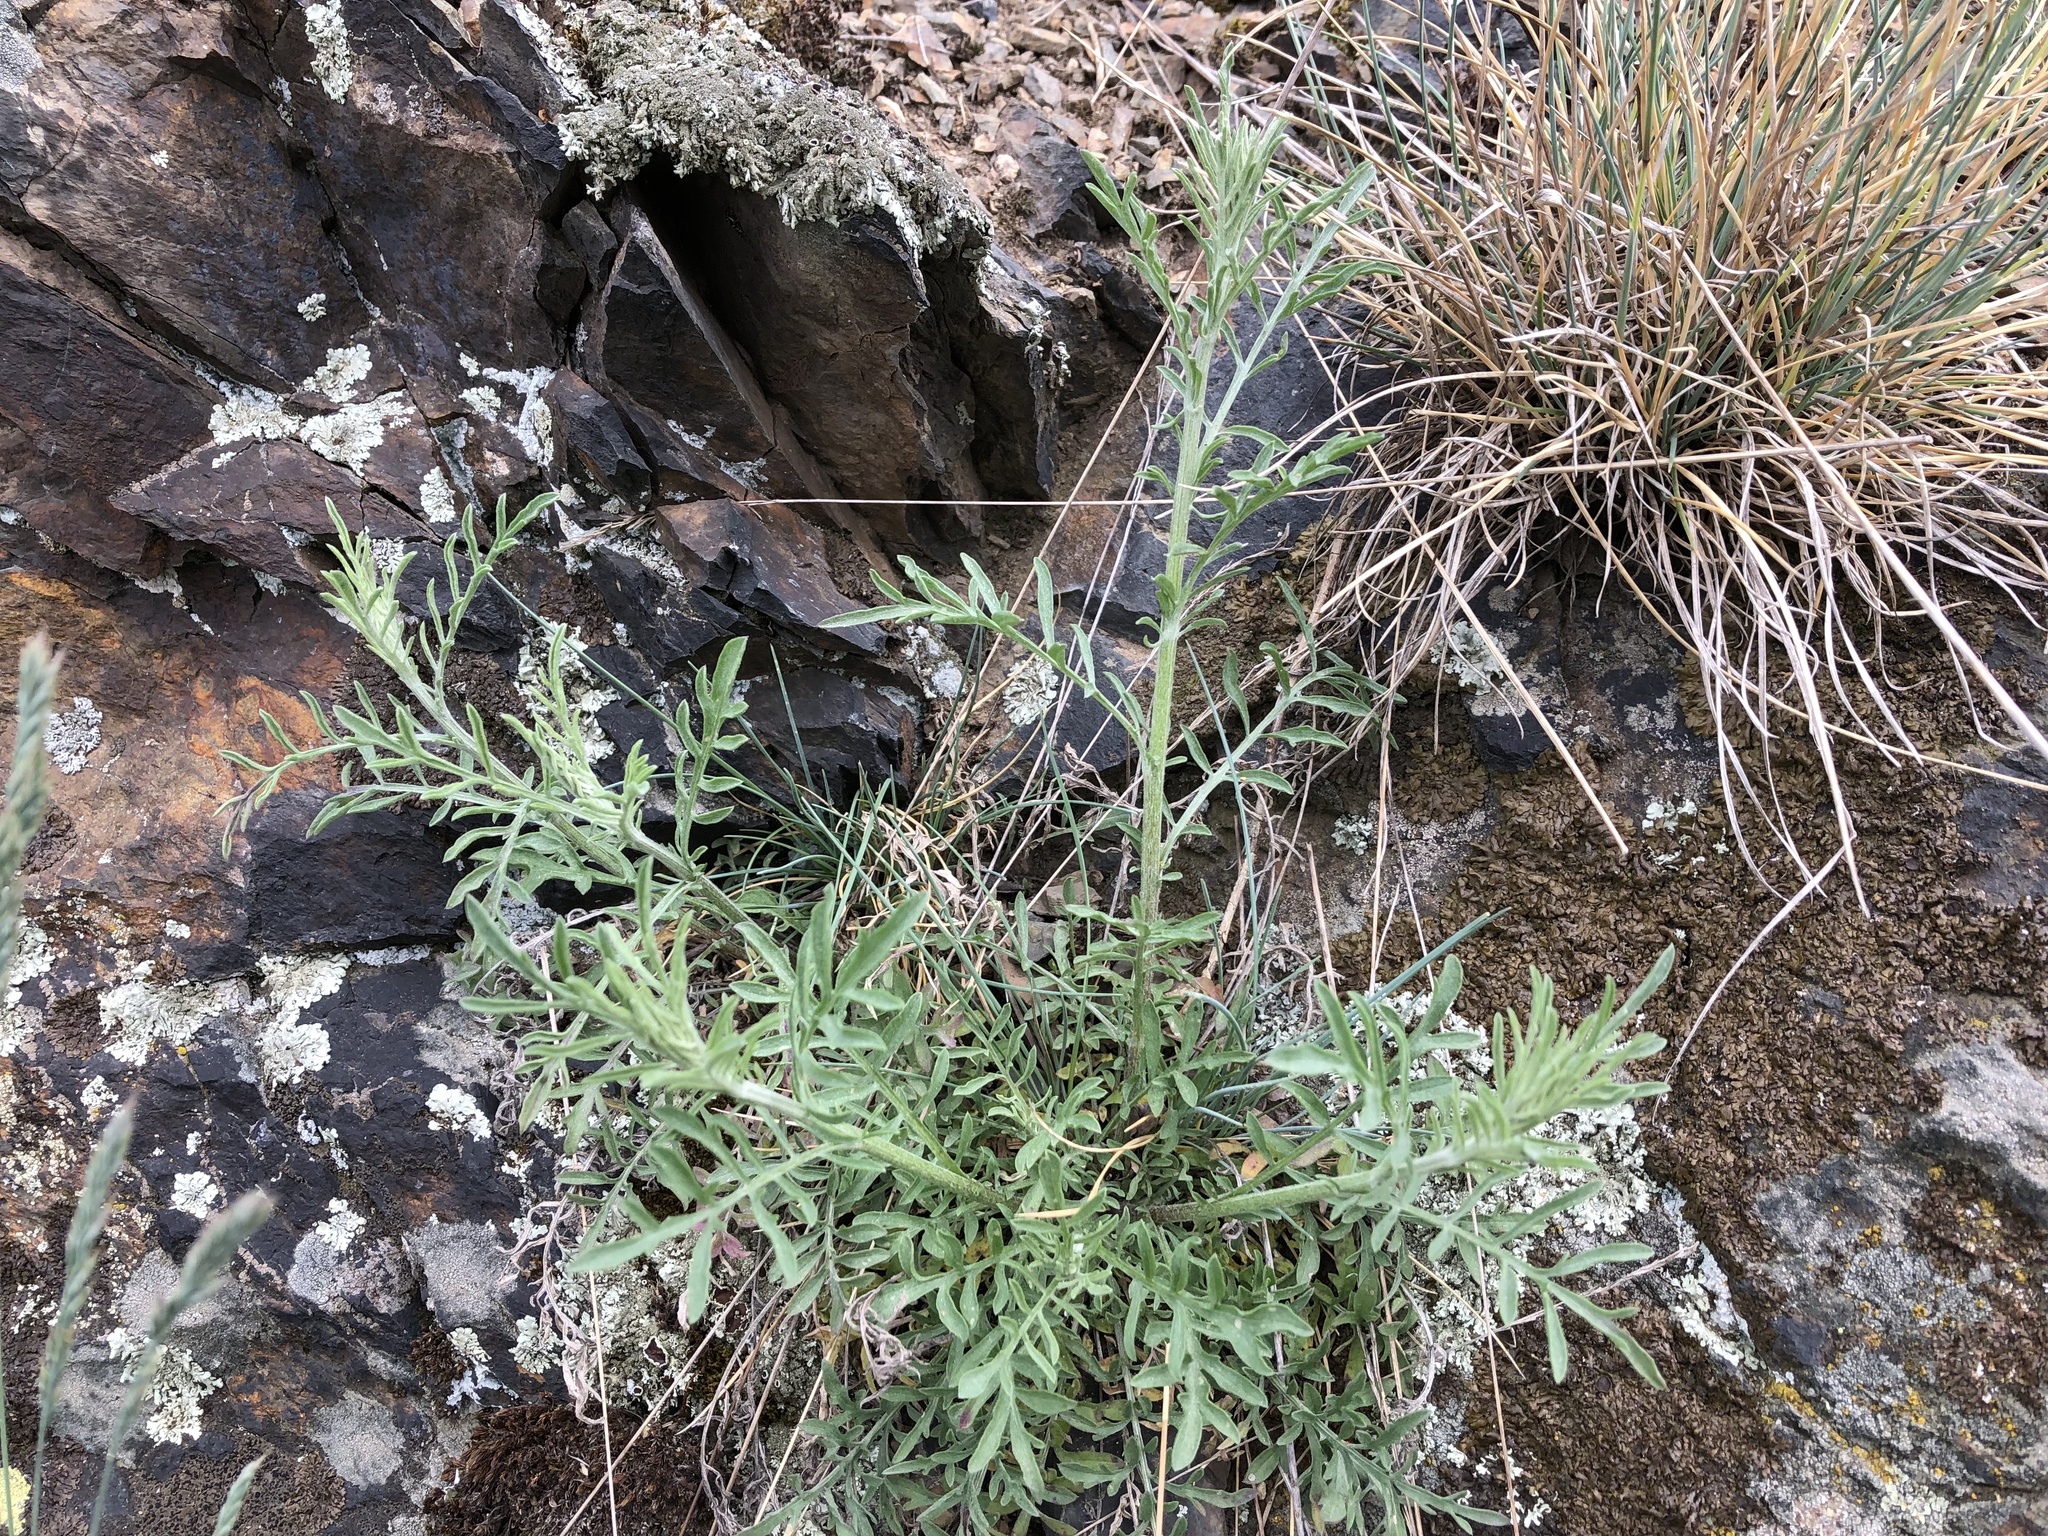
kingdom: Plantae
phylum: Tracheophyta
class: Magnoliopsida
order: Asterales
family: Asteraceae
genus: Centaurea
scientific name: Centaurea stoebe
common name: Spotted knapweed
